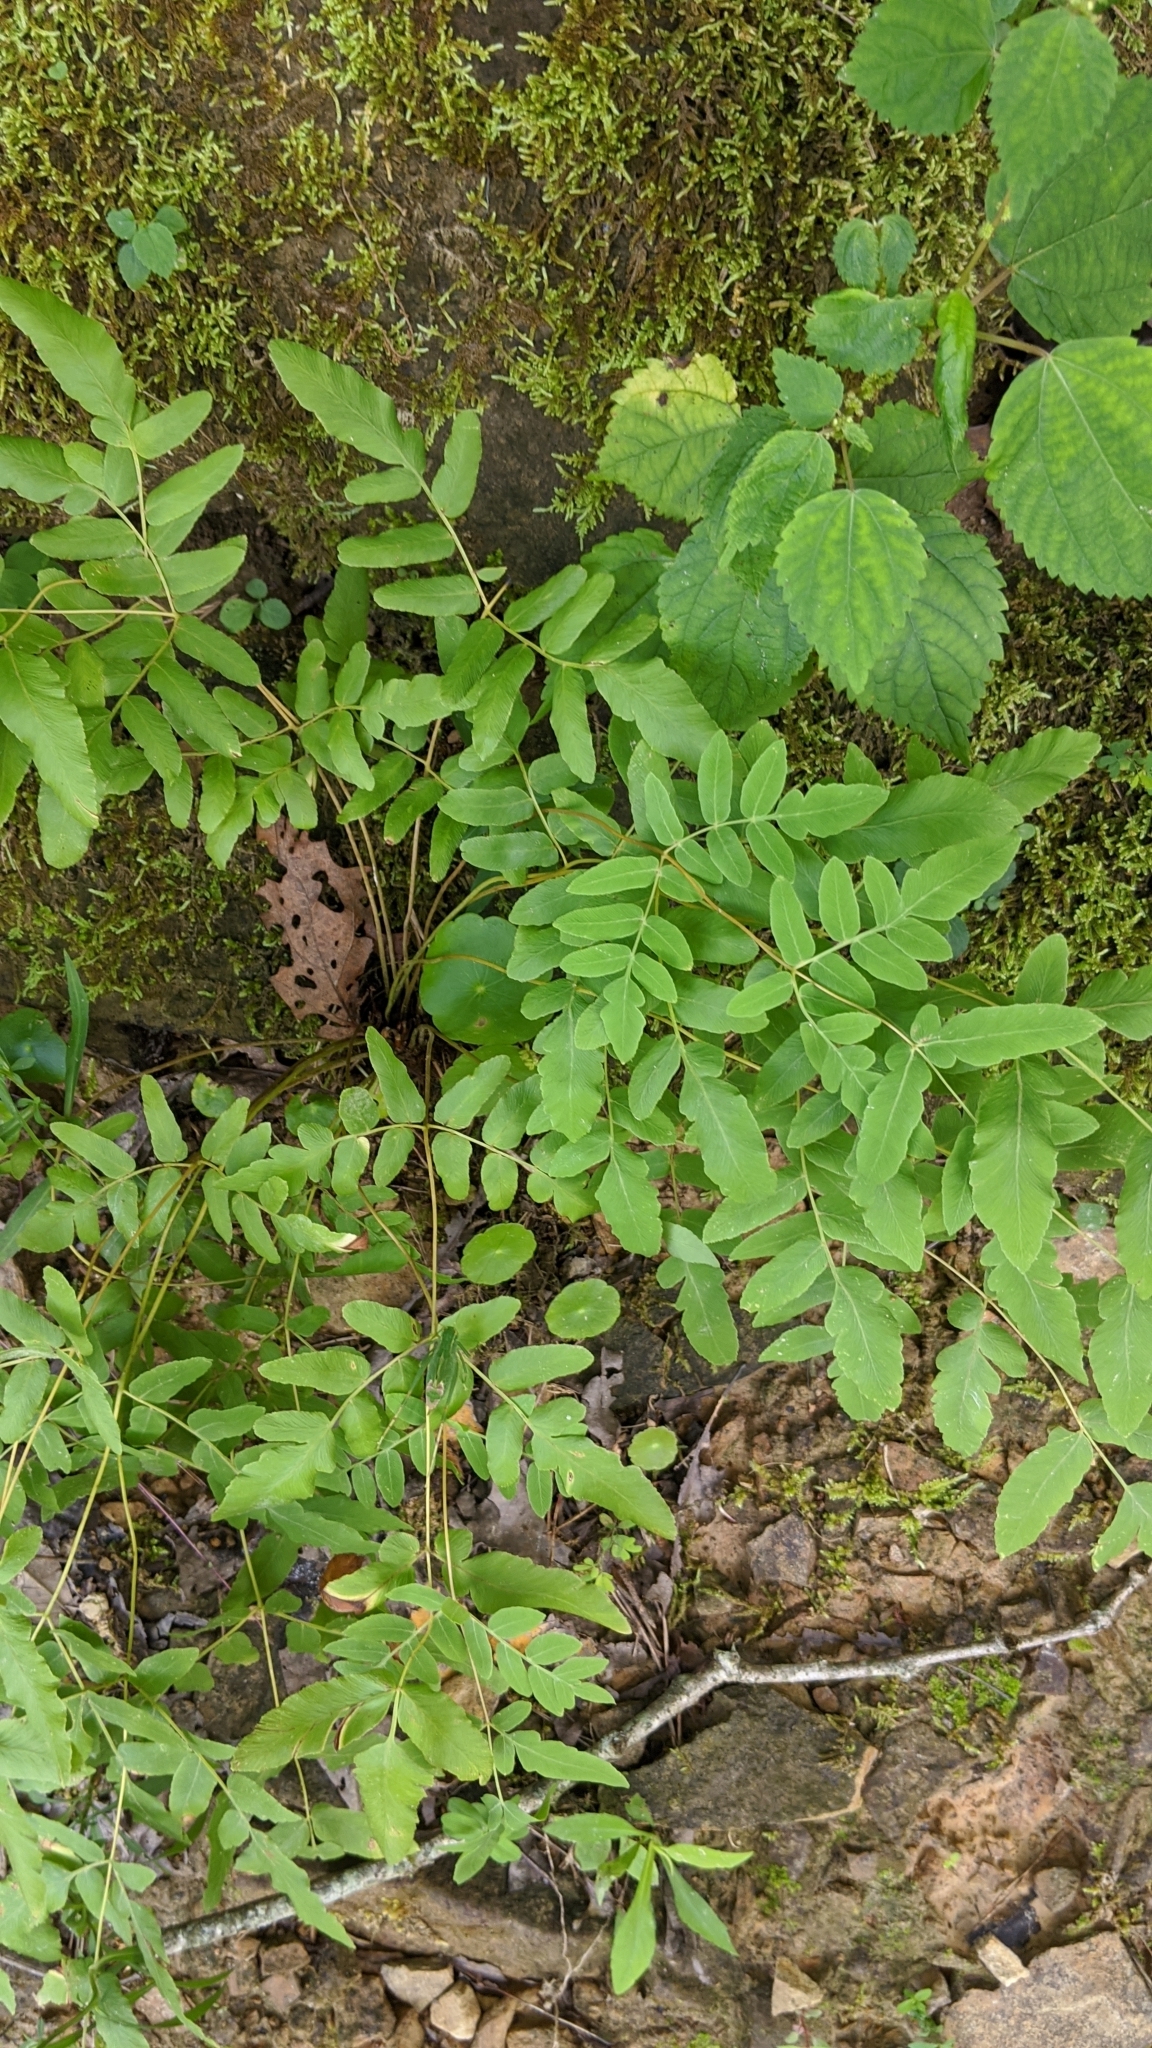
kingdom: Plantae
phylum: Tracheophyta
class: Polypodiopsida
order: Osmundales
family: Osmundaceae
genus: Osmunda
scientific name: Osmunda spectabilis
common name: American royal fern
